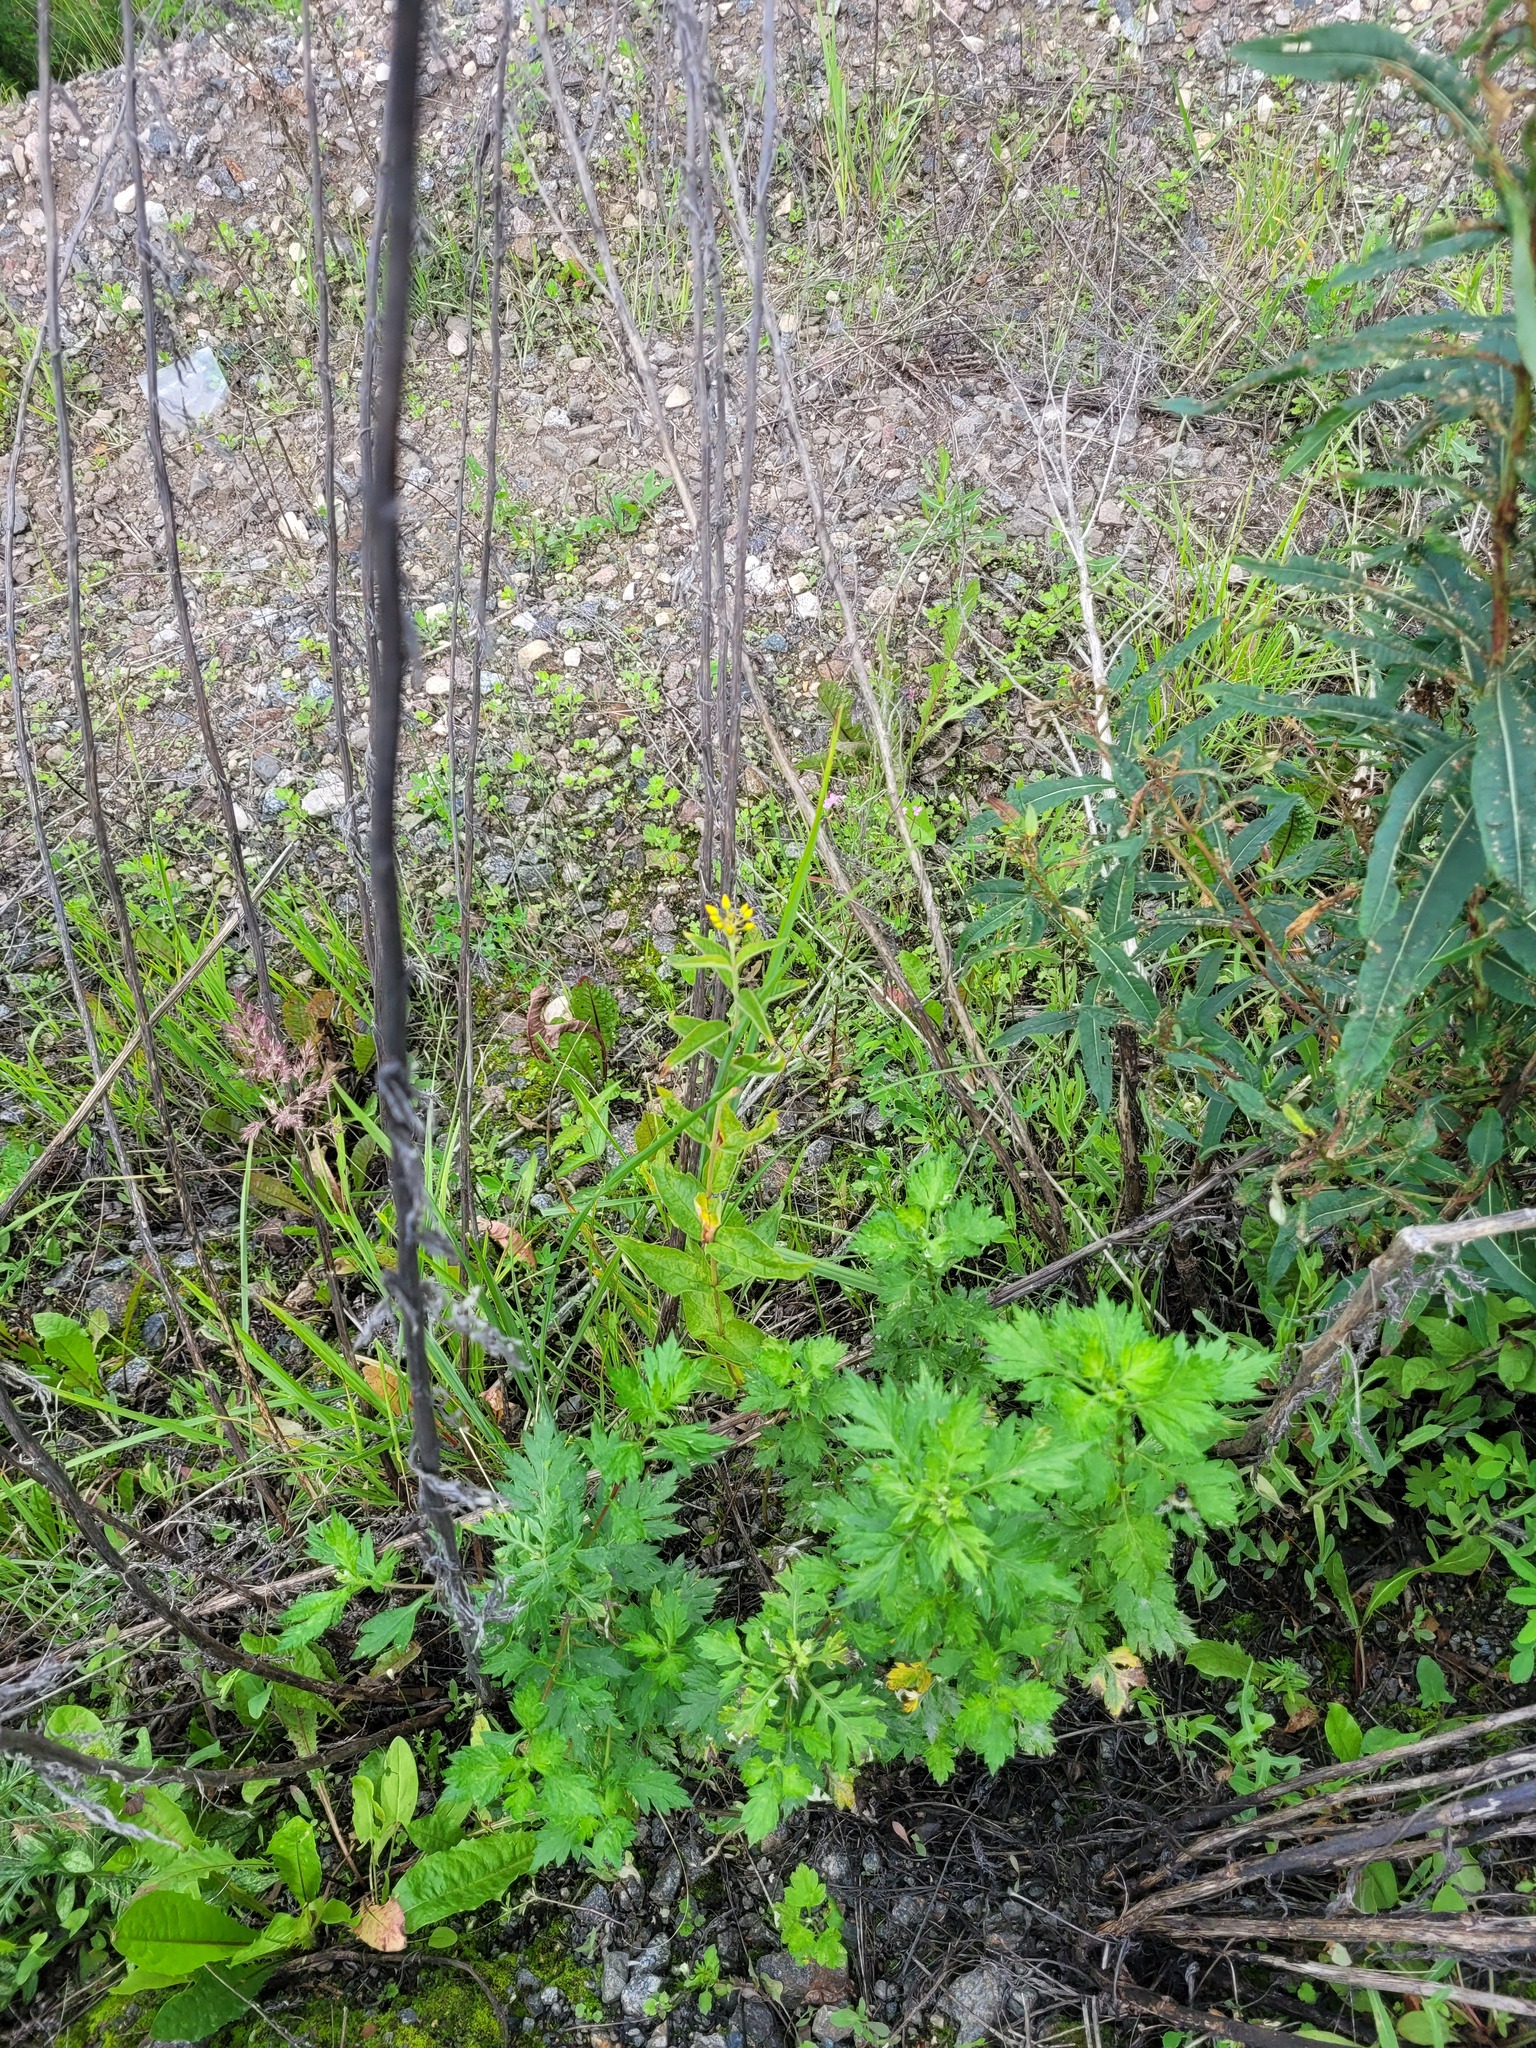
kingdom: Plantae
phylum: Tracheophyta
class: Magnoliopsida
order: Ericales
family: Primulaceae
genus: Lysimachia
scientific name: Lysimachia vulgaris
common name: Yellow loosestrife
